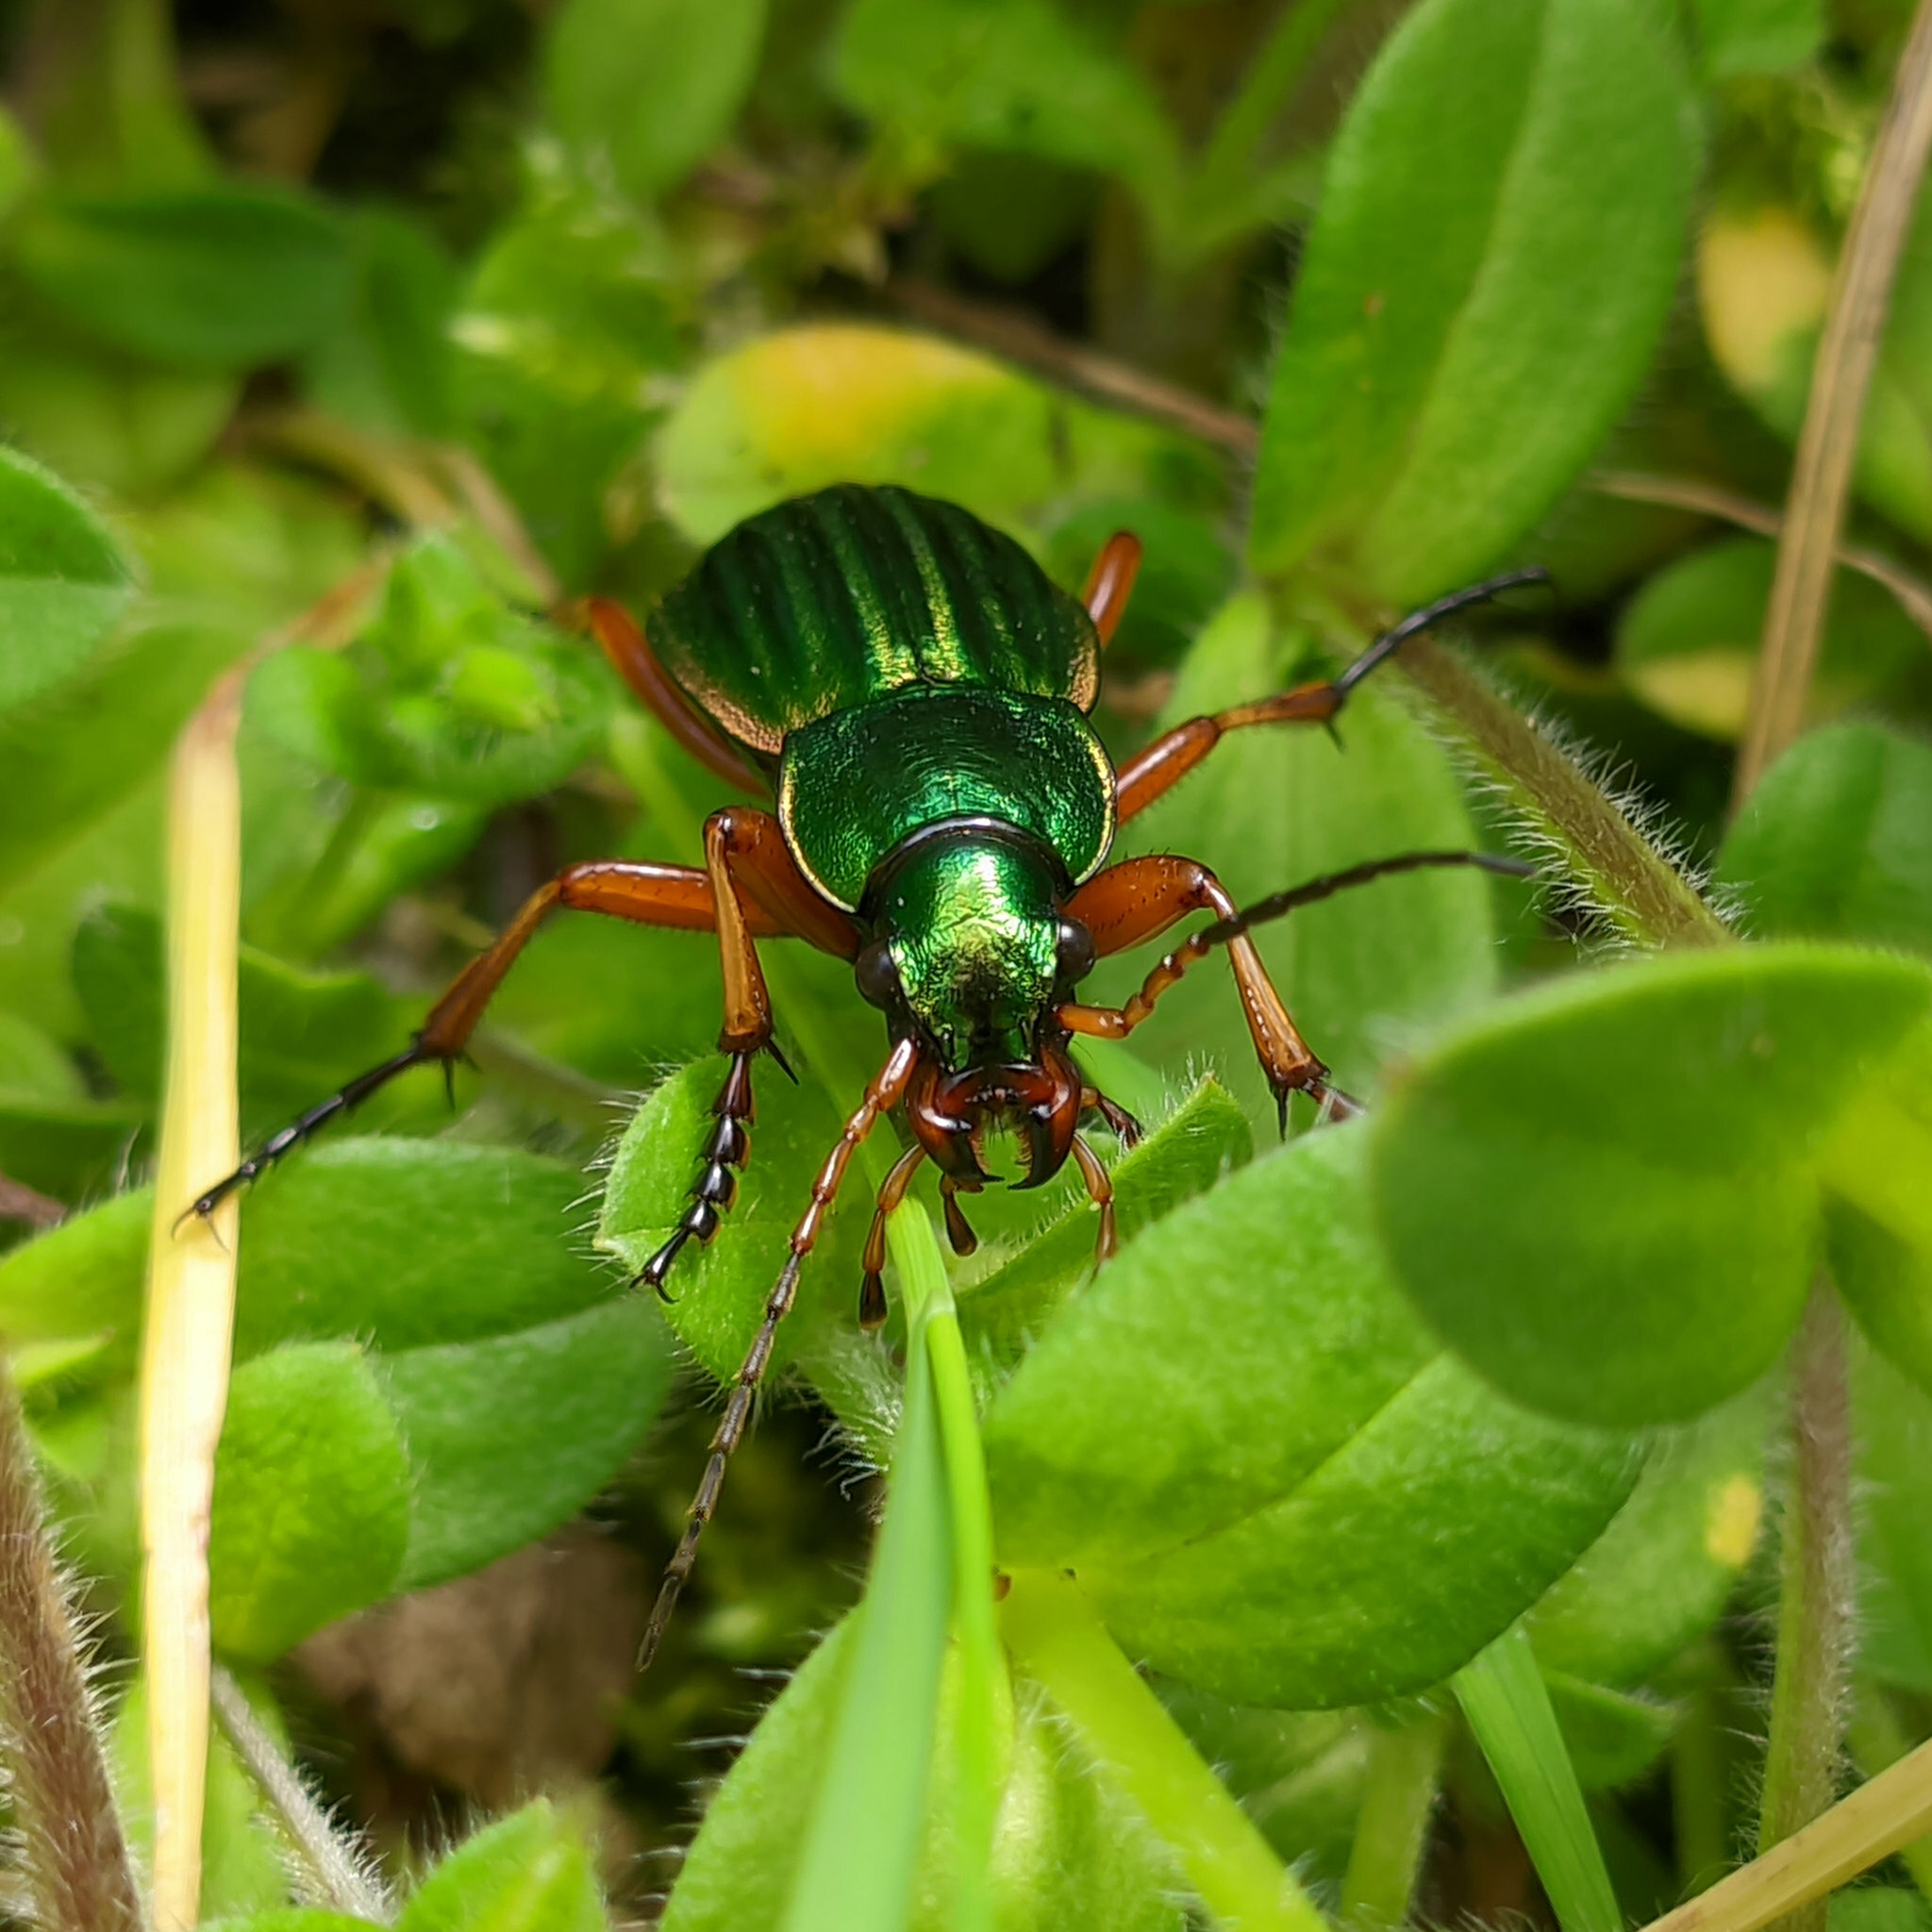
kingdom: Animalia
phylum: Arthropoda
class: Insecta
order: Coleoptera
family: Carabidae
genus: Carabus
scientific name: Carabus auratus
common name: Golden ground beetle
